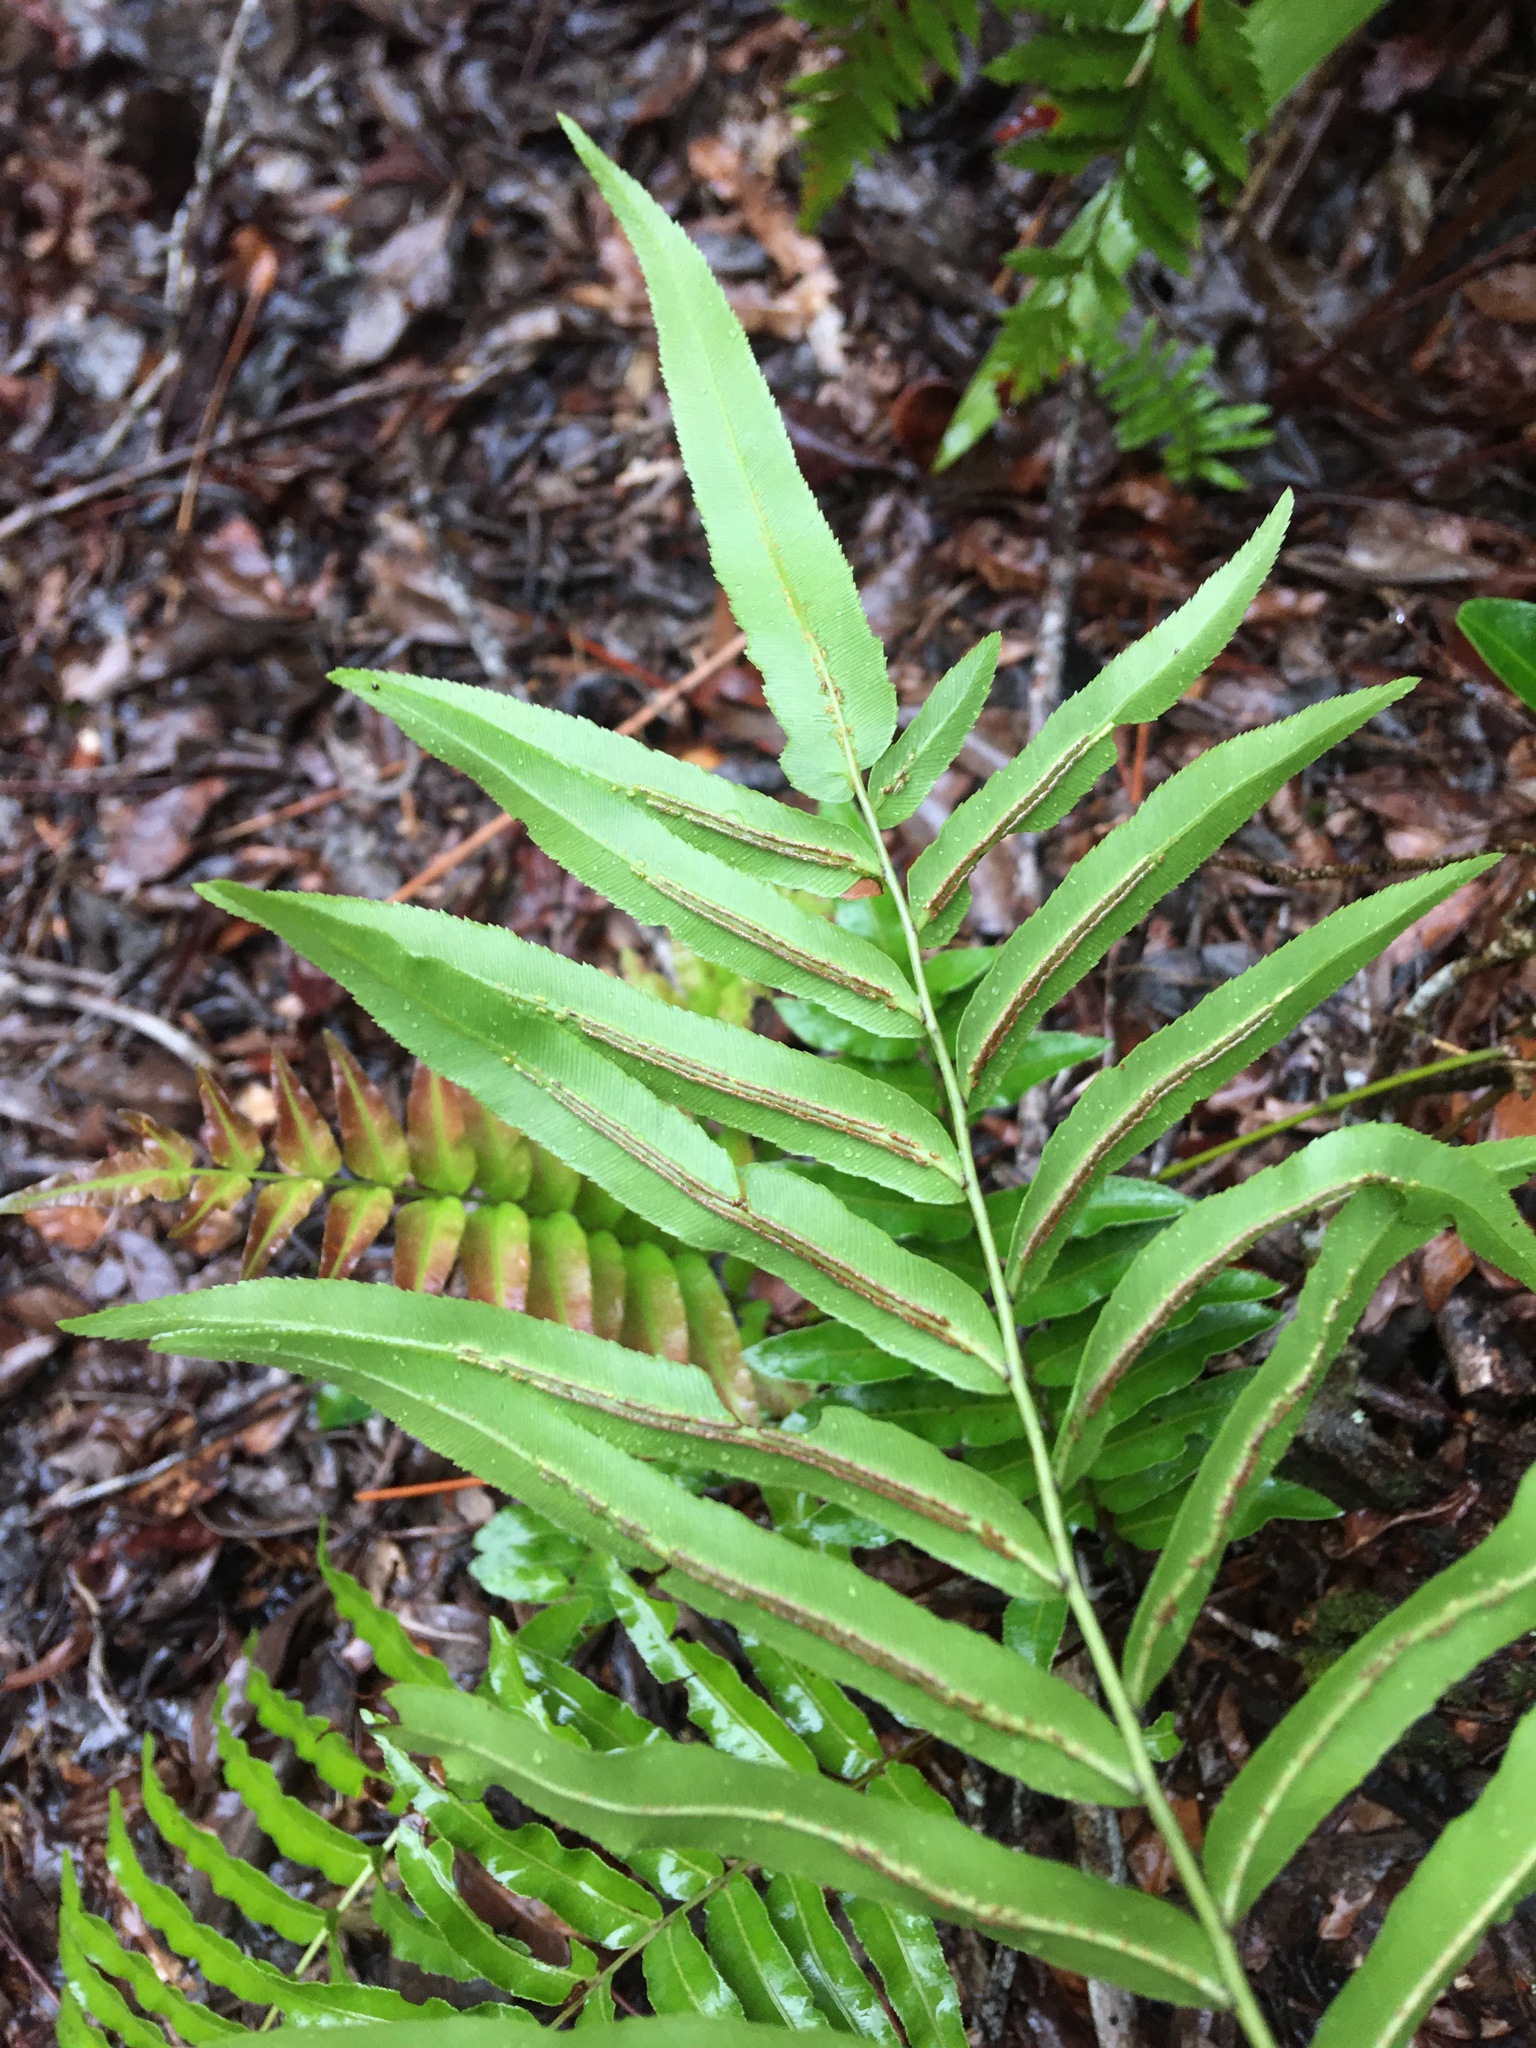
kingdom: Plantae
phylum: Tracheophyta
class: Polypodiopsida
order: Polypodiales
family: Blechnaceae
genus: Telmatoblechnum
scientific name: Telmatoblechnum serrulatum
